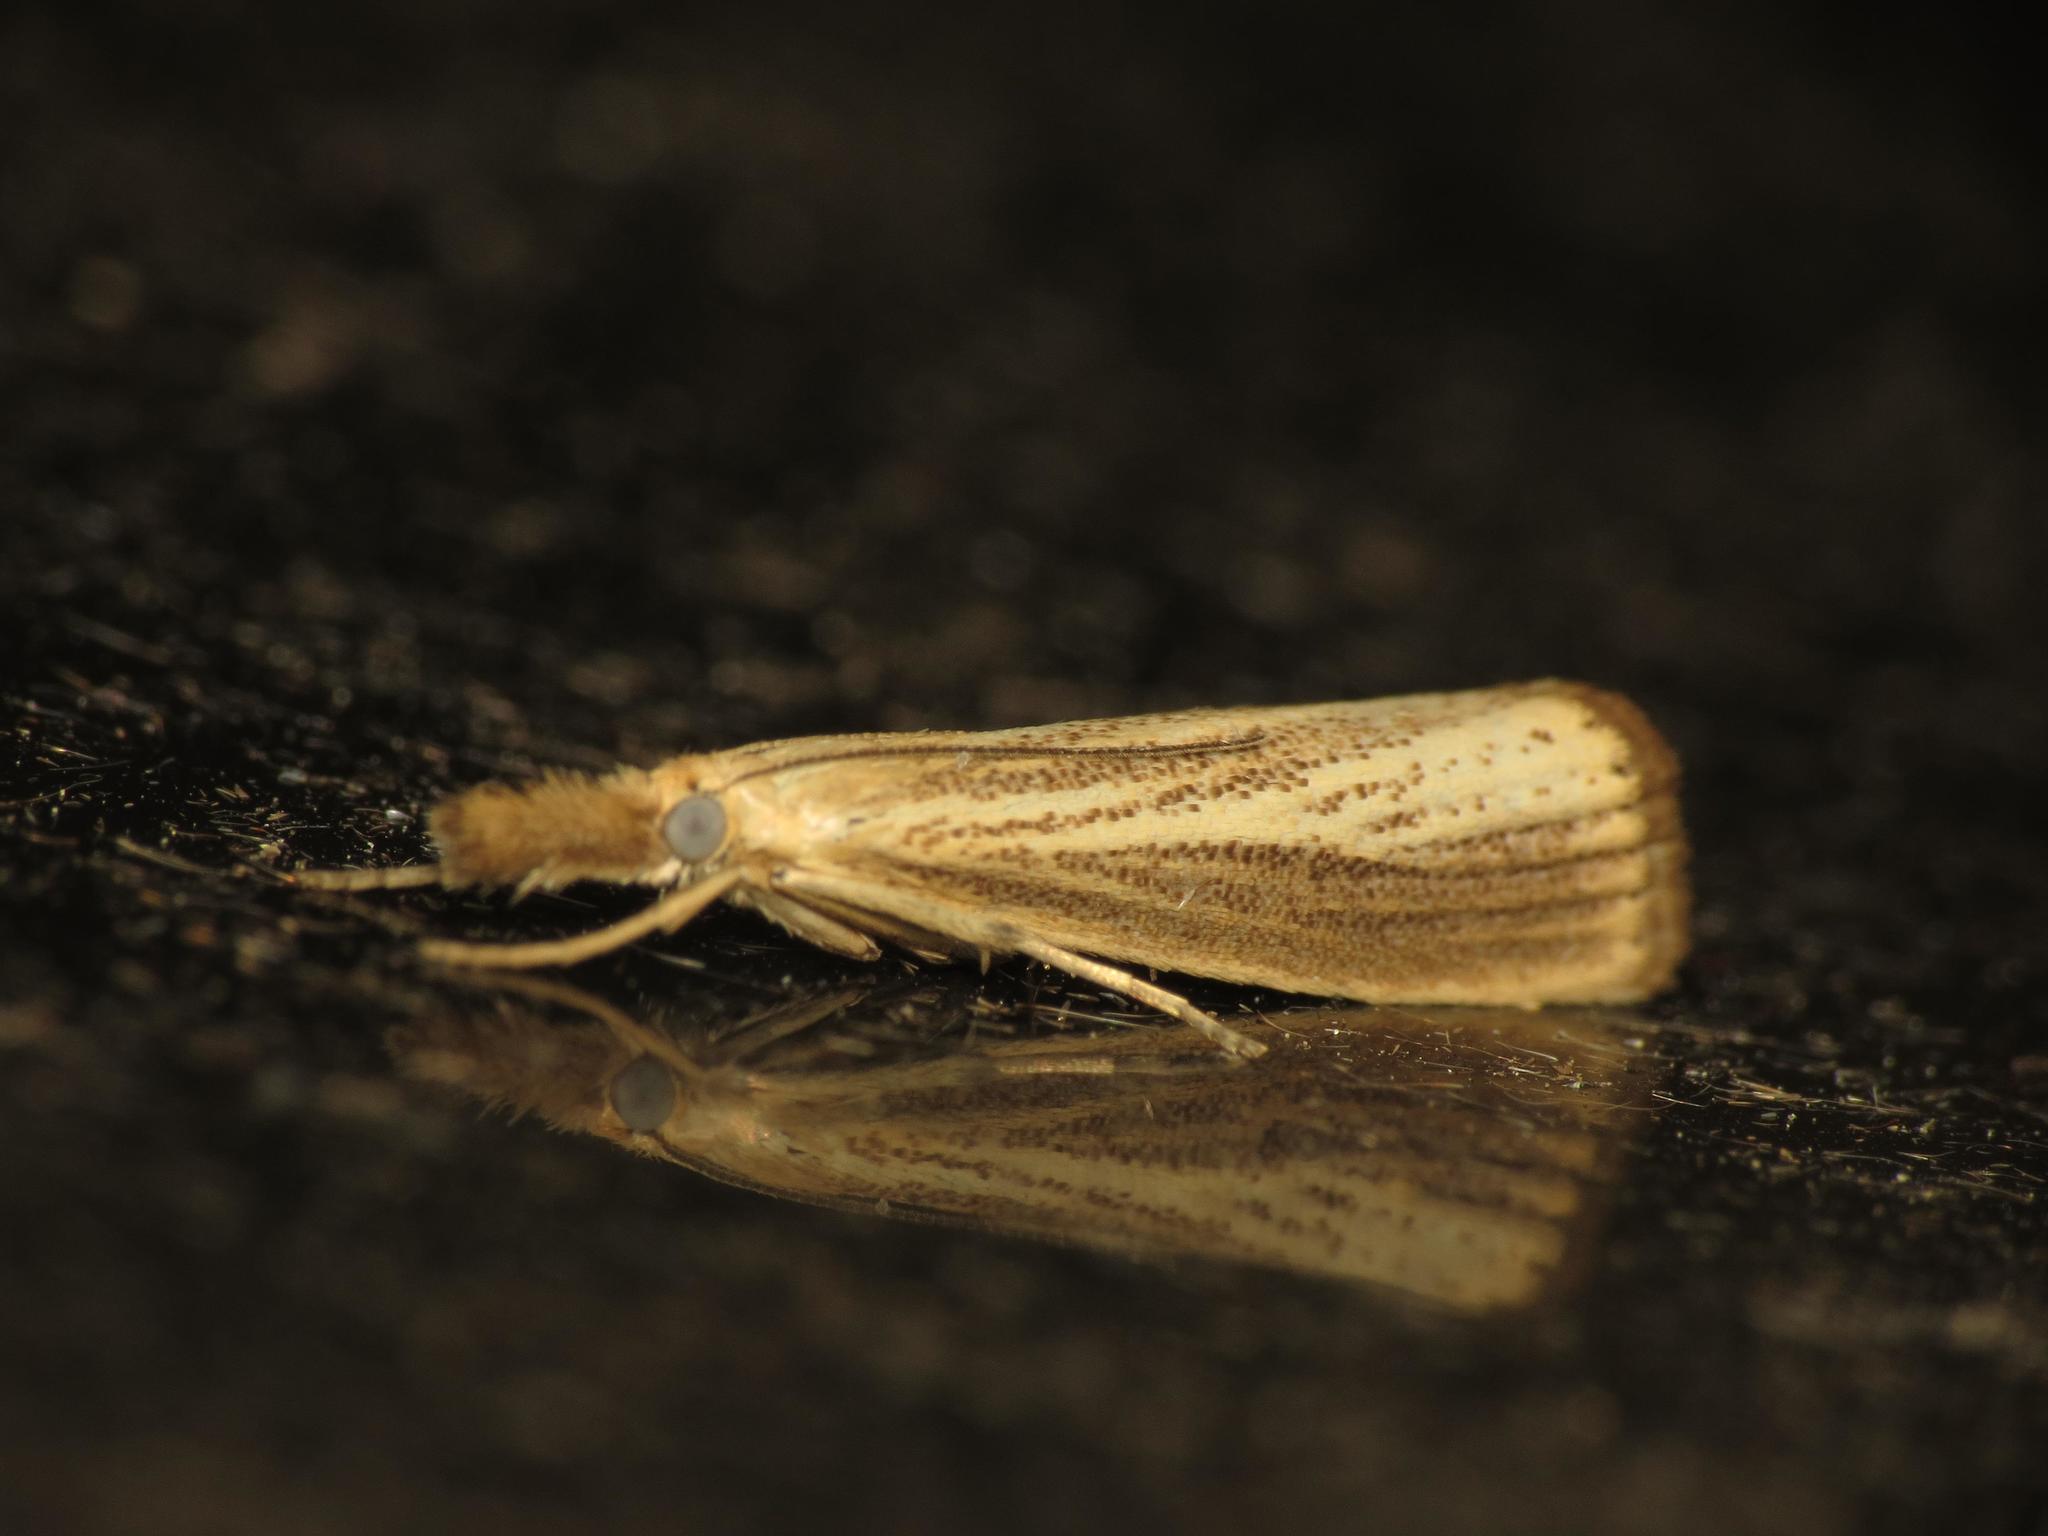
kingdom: Animalia
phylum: Arthropoda
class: Insecta
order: Lepidoptera
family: Crambidae
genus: Agriphila
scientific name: Agriphila straminella
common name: Straw grass-veneer
